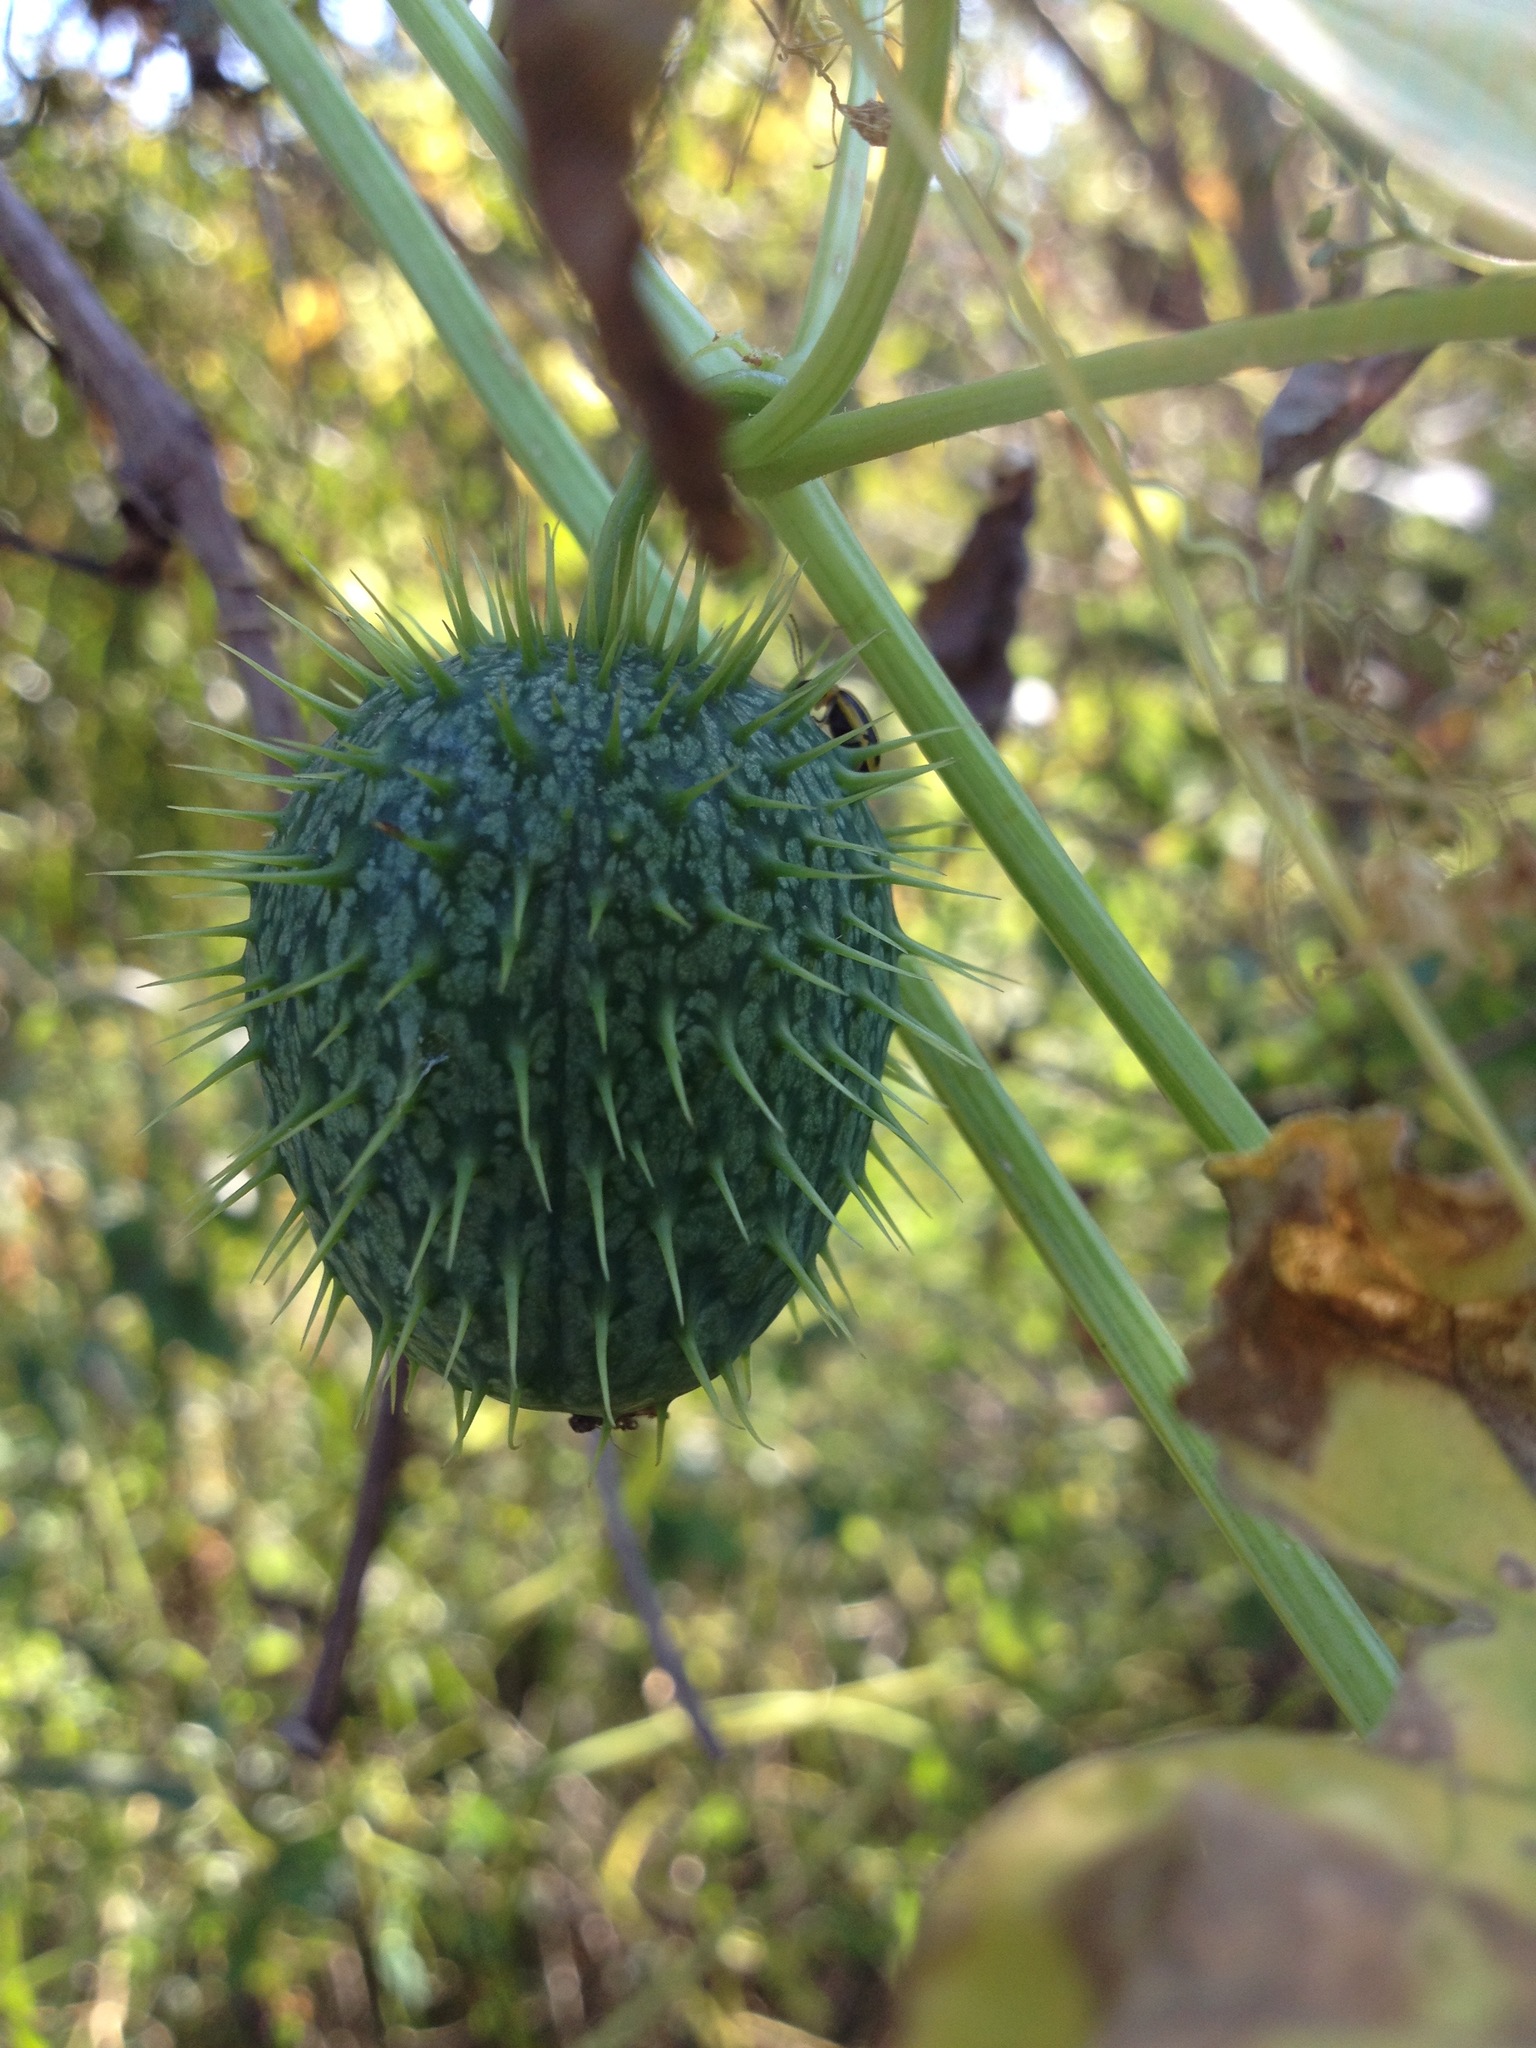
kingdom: Plantae
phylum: Tracheophyta
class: Magnoliopsida
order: Cucurbitales
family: Cucurbitaceae
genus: Echinocystis
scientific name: Echinocystis lobata
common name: Wild cucumber
